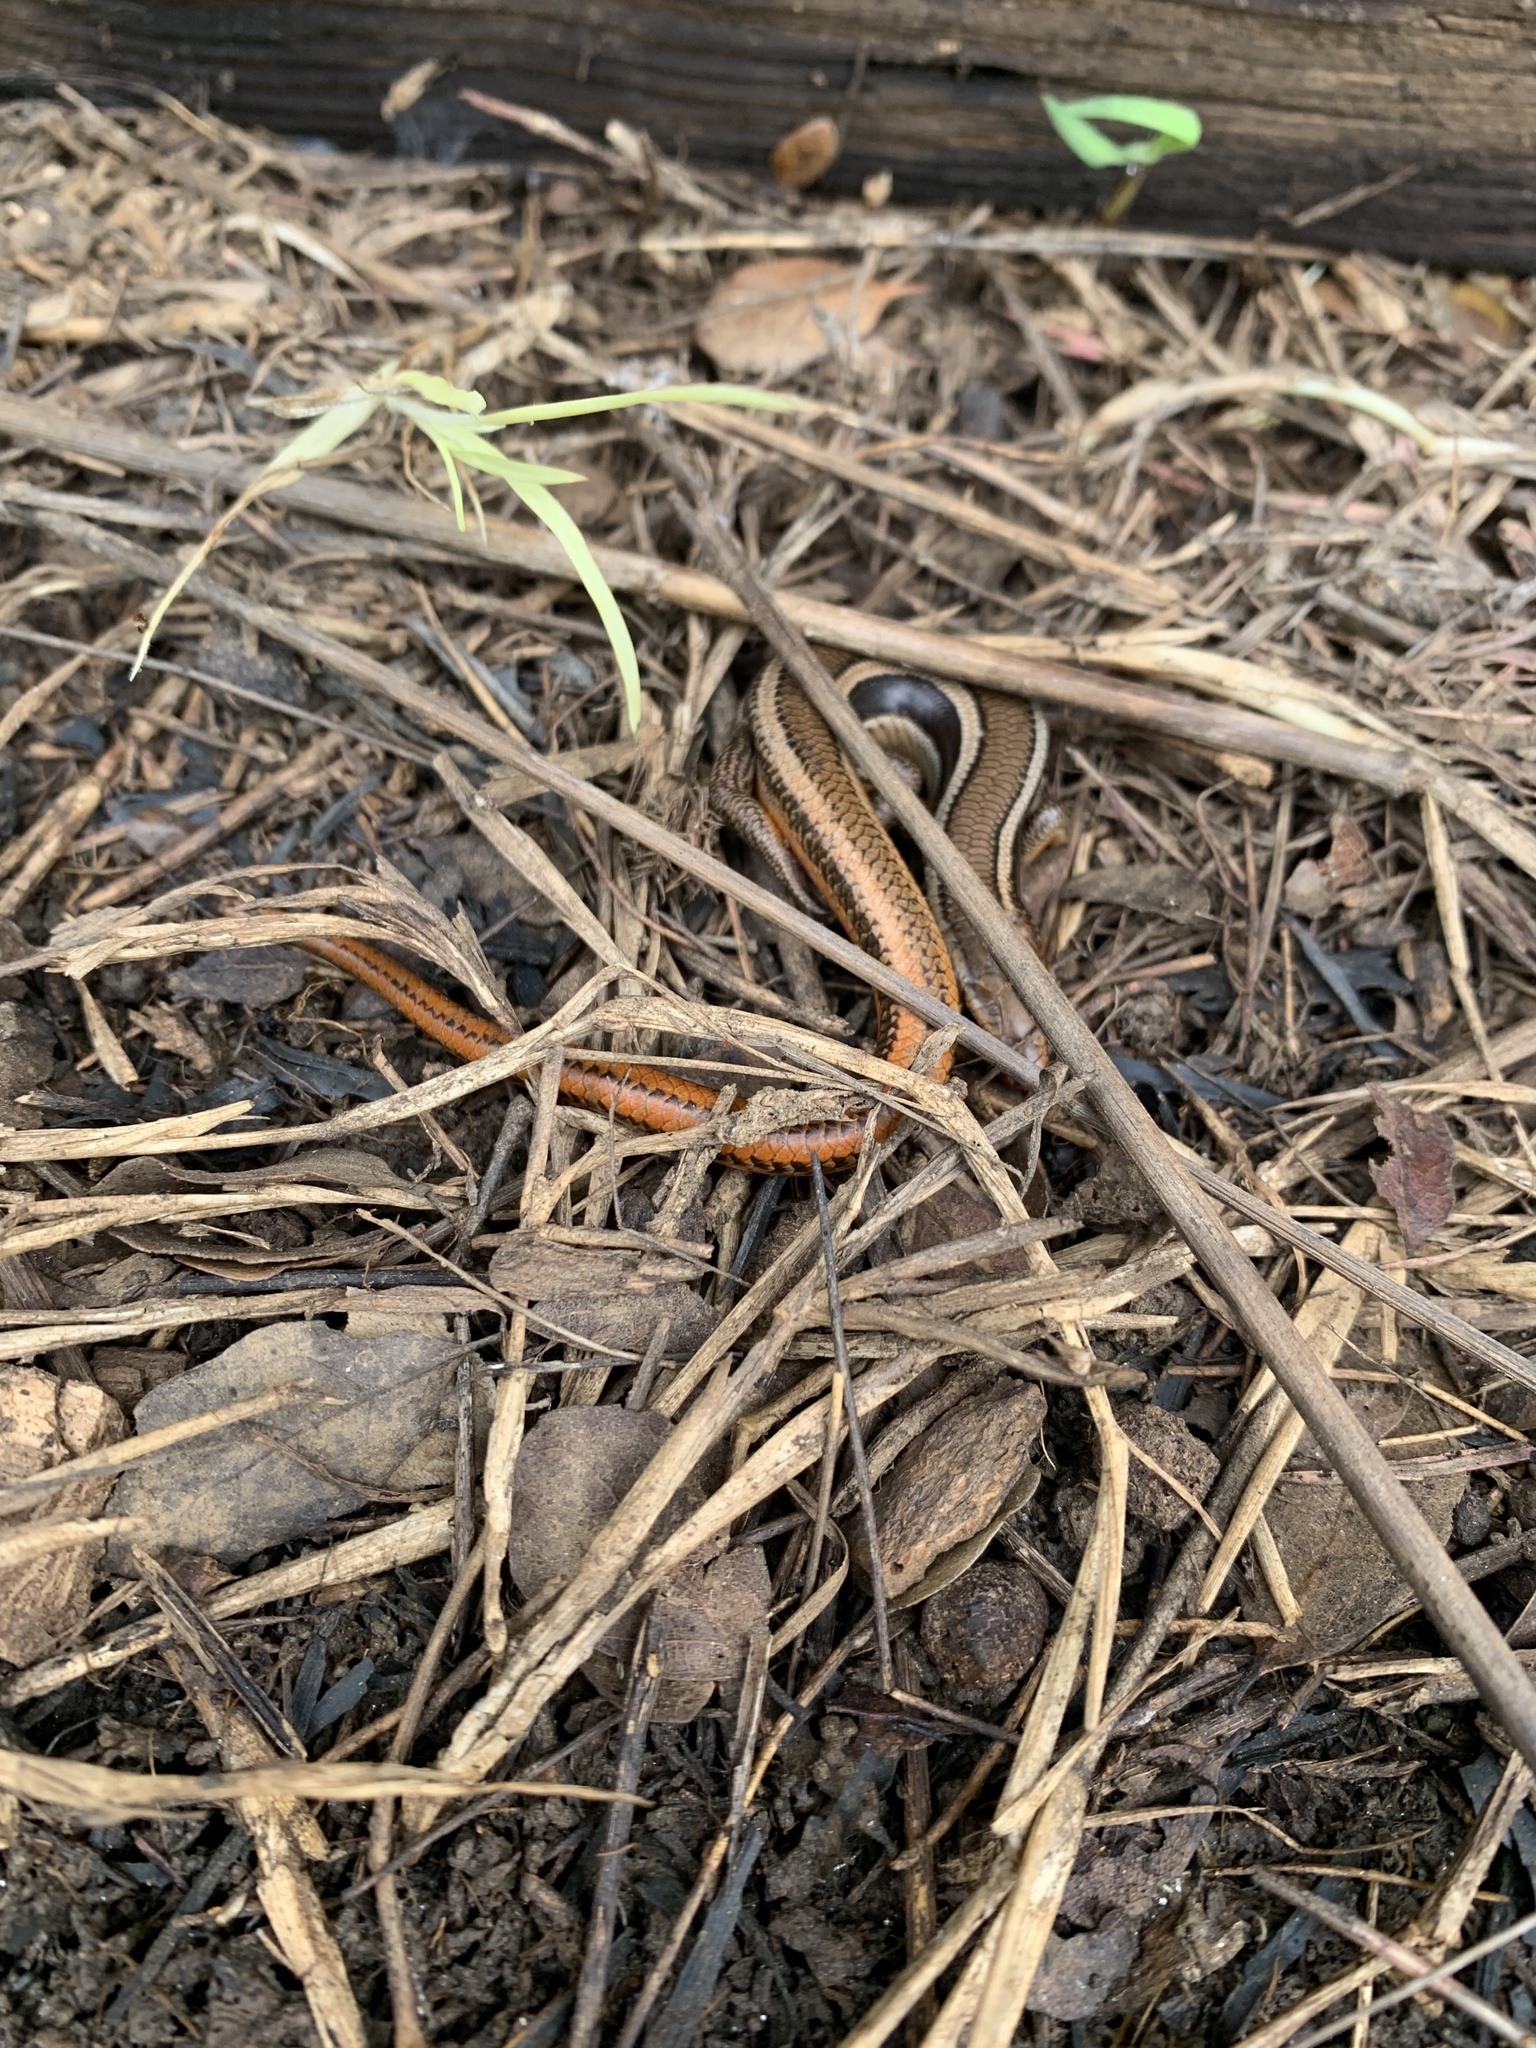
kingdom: Animalia
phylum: Chordata
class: Squamata
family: Scincidae
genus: Plestiodon
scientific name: Plestiodon skiltonianus
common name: Coronado island skink [interparietalis]
